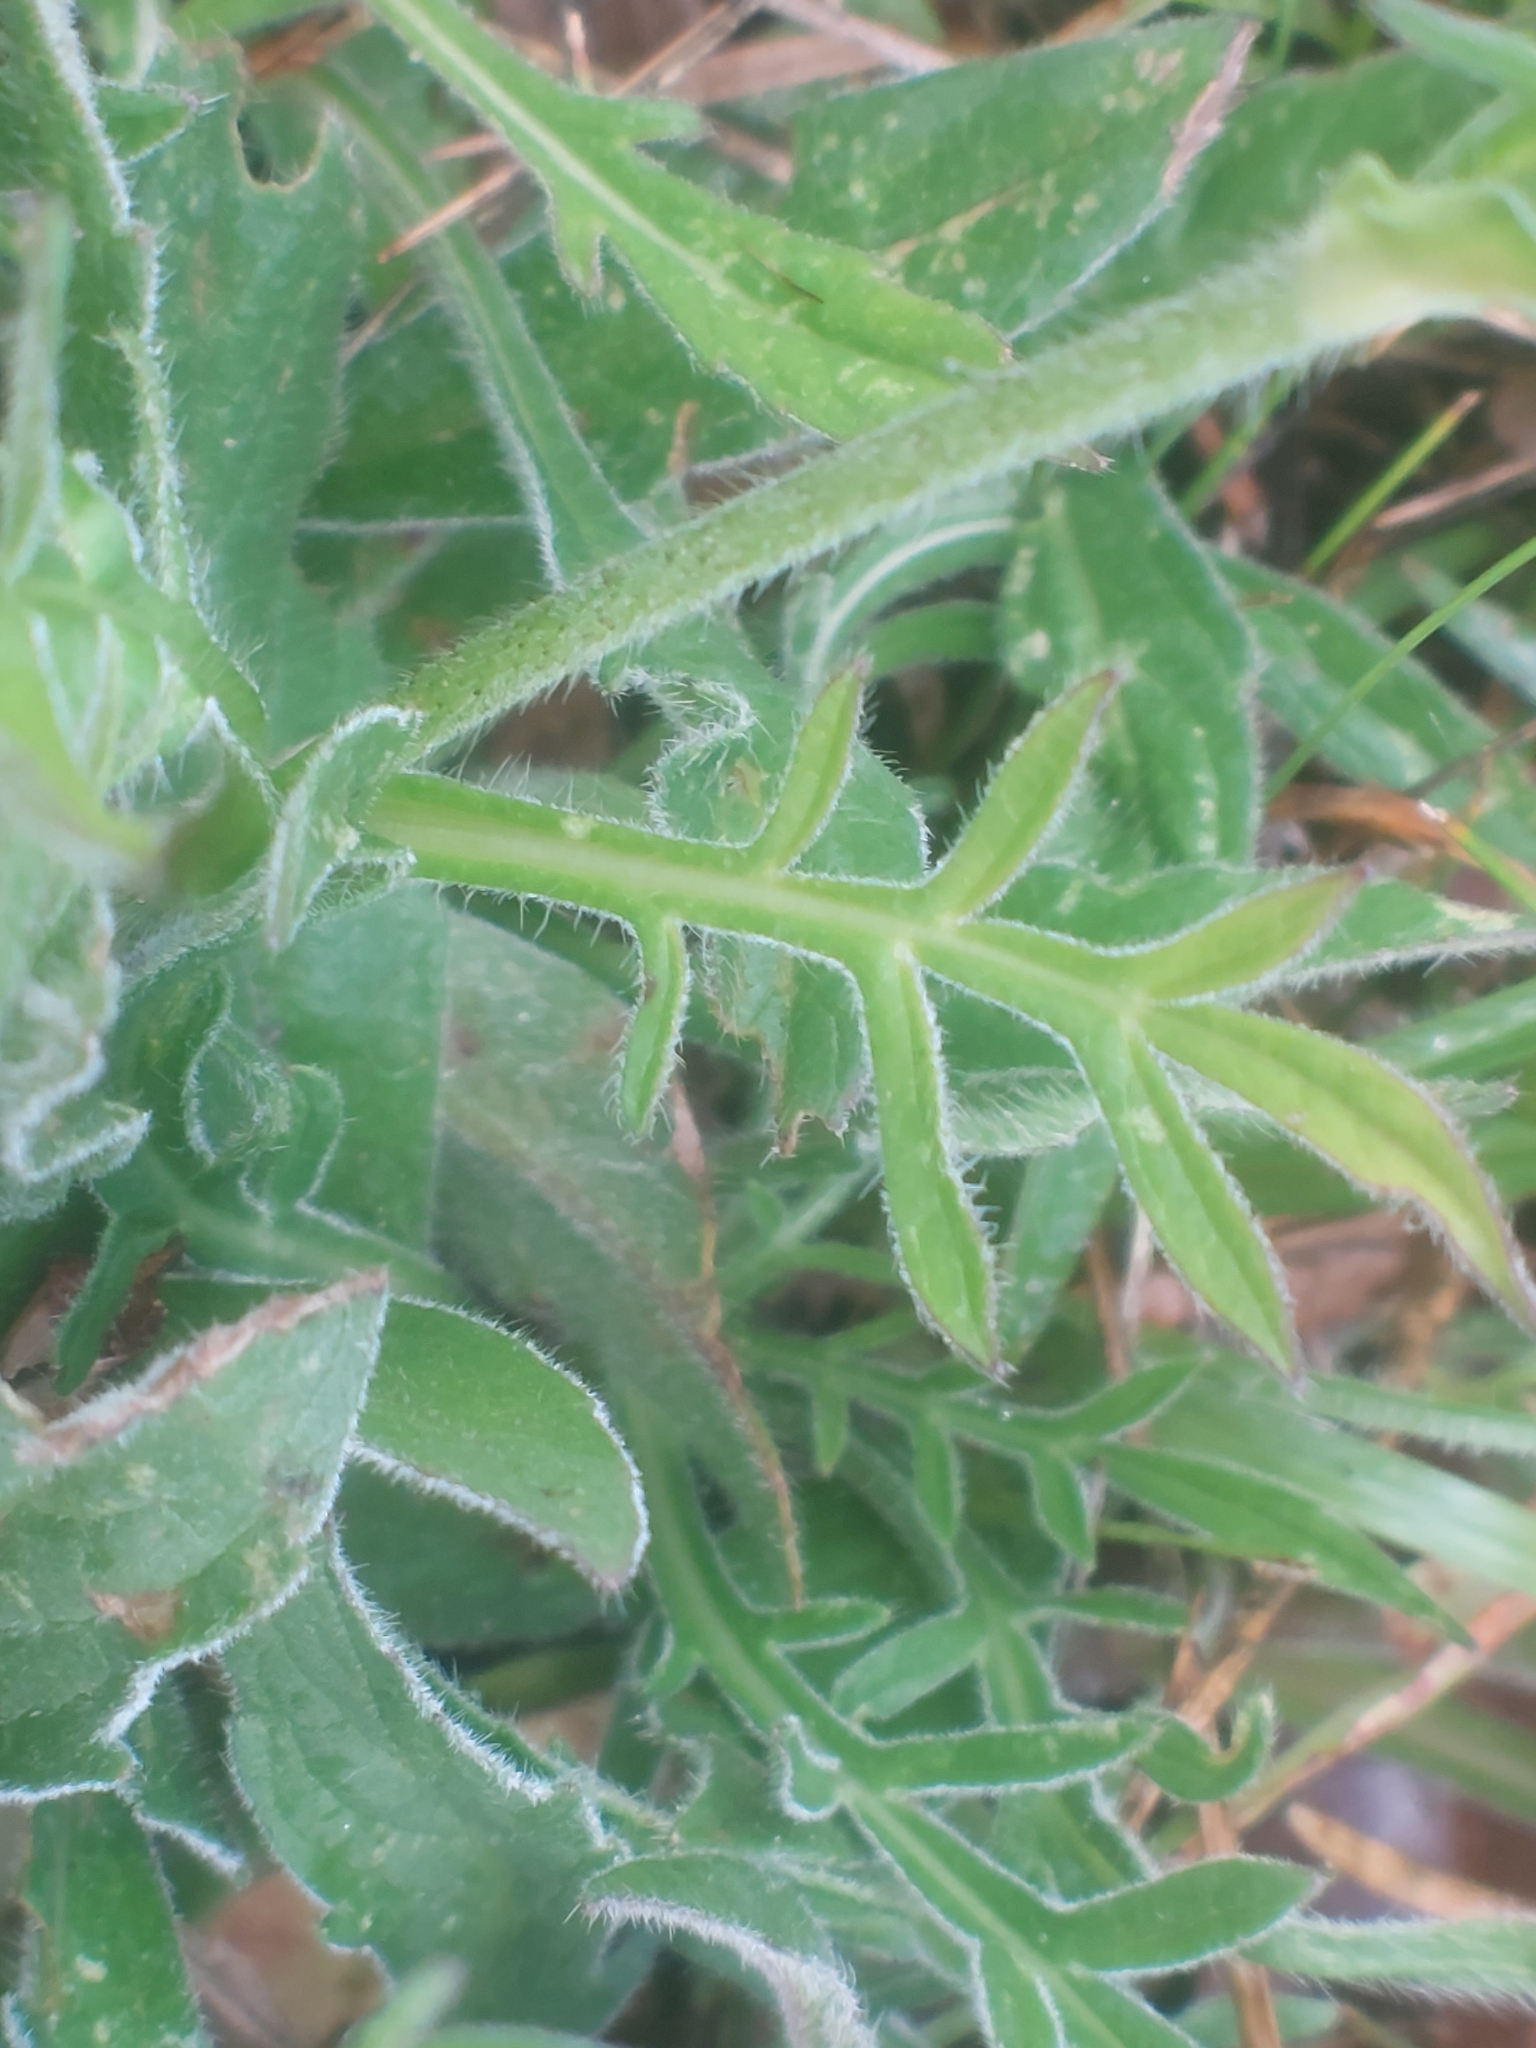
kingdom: Plantae
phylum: Tracheophyta
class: Magnoliopsida
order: Dipsacales
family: Caprifoliaceae
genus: Knautia
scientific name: Knautia arvensis
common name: Field scabiosa
